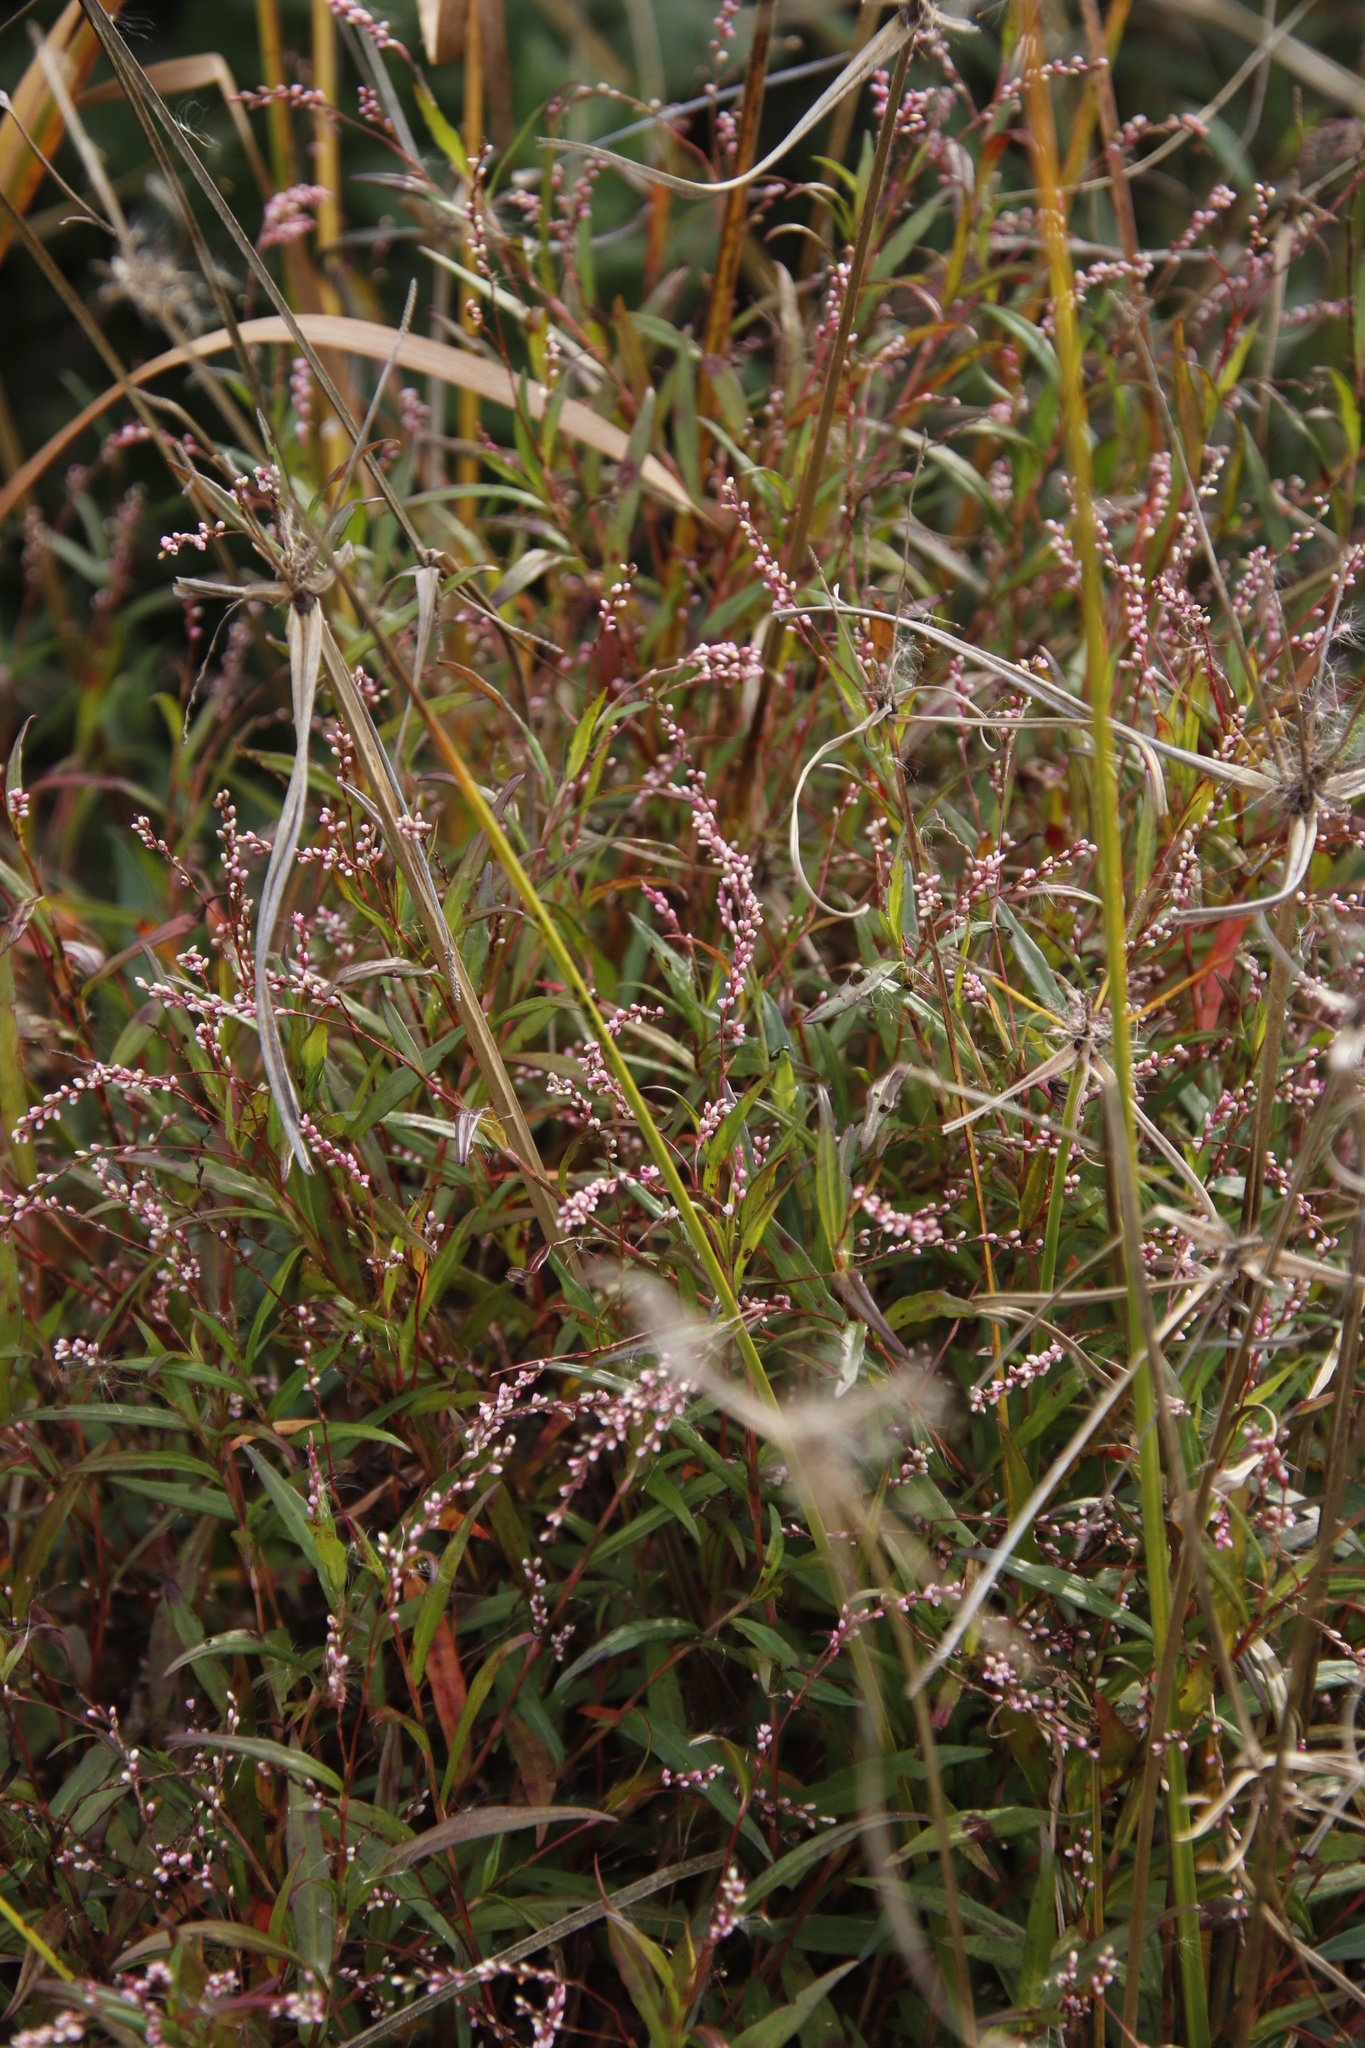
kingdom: Plantae
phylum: Tracheophyta
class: Magnoliopsida
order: Caryophyllales
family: Polygonaceae
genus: Persicaria
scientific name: Persicaria decipiens
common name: Willow-weed
